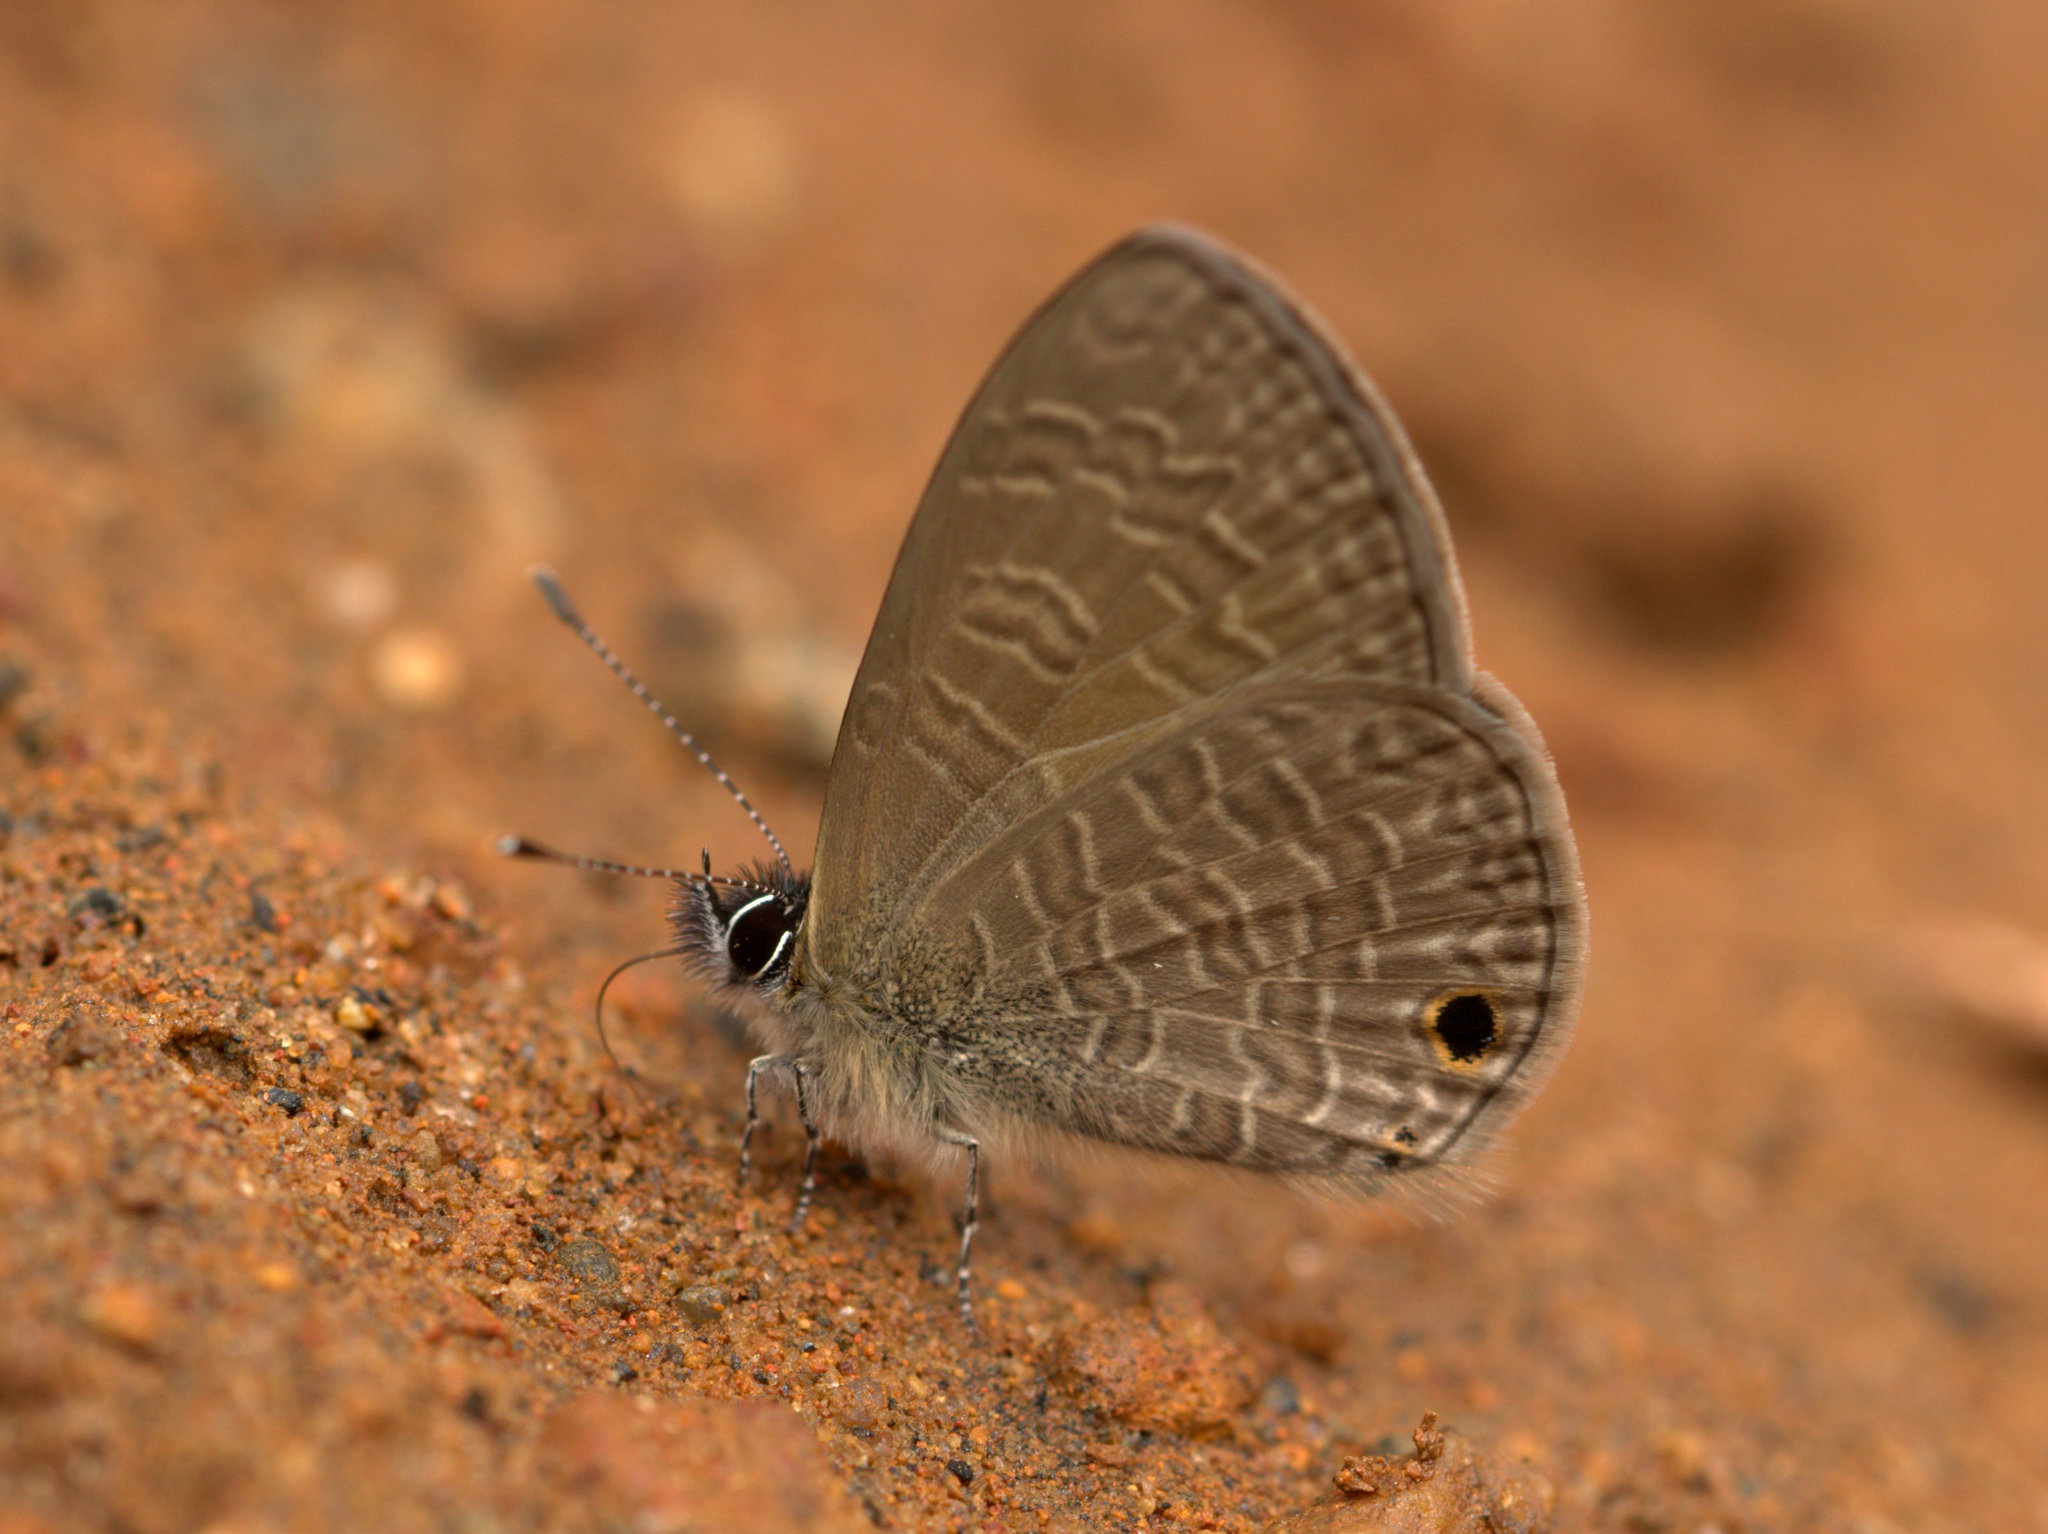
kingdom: Animalia
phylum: Arthropoda
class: Insecta
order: Lepidoptera
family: Lycaenidae
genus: Prosotas
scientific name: Prosotas dubiosa
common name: Tailless lineblue
